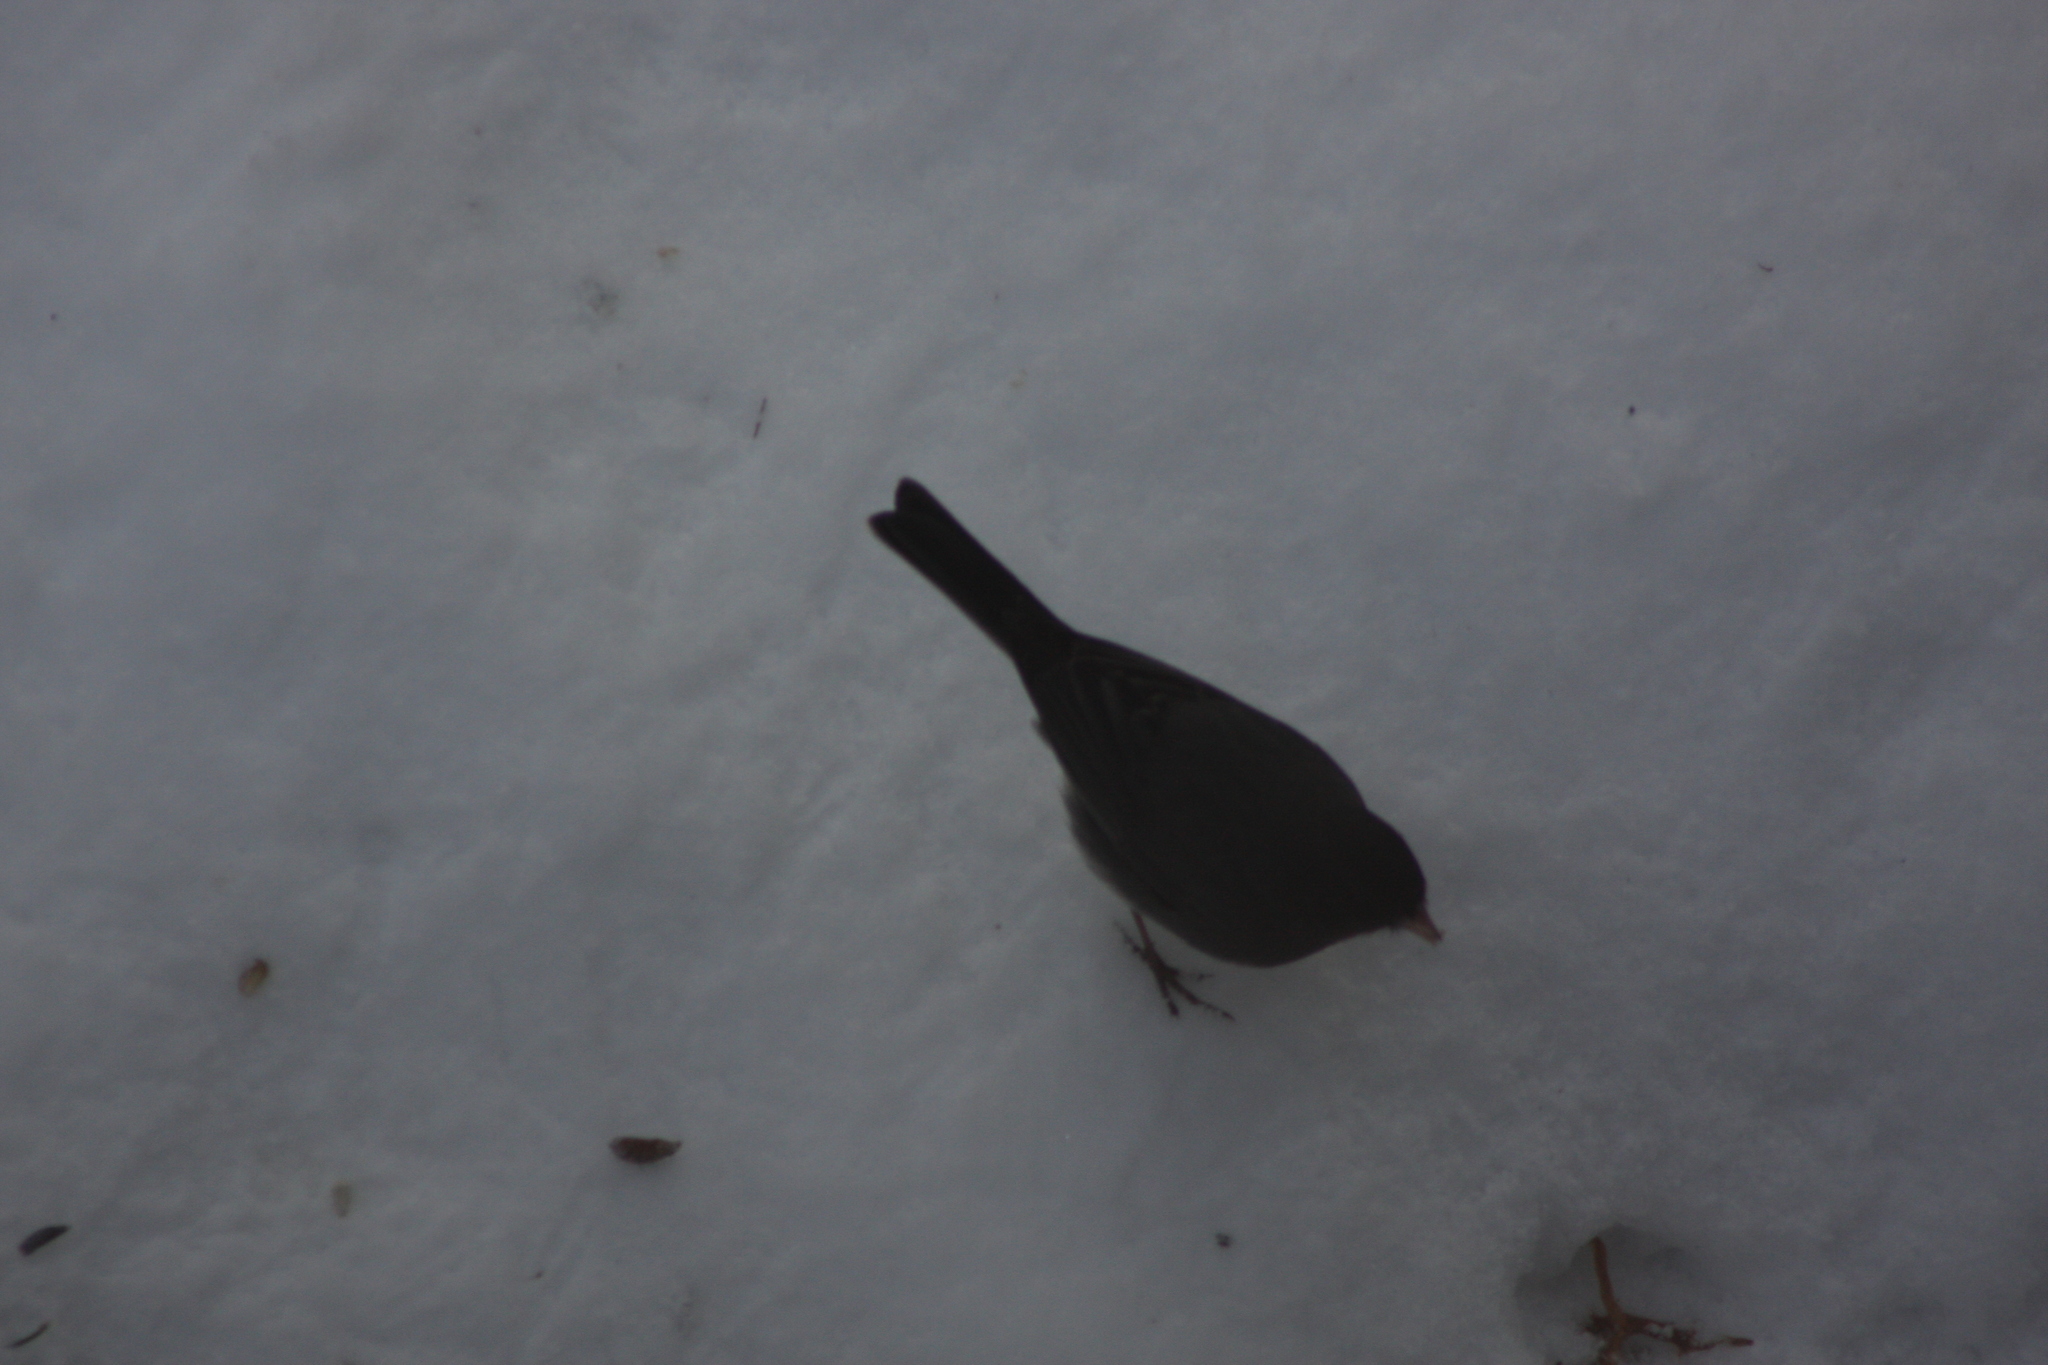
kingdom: Animalia
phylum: Chordata
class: Aves
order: Passeriformes
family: Passerellidae
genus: Junco
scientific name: Junco hyemalis
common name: Dark-eyed junco
